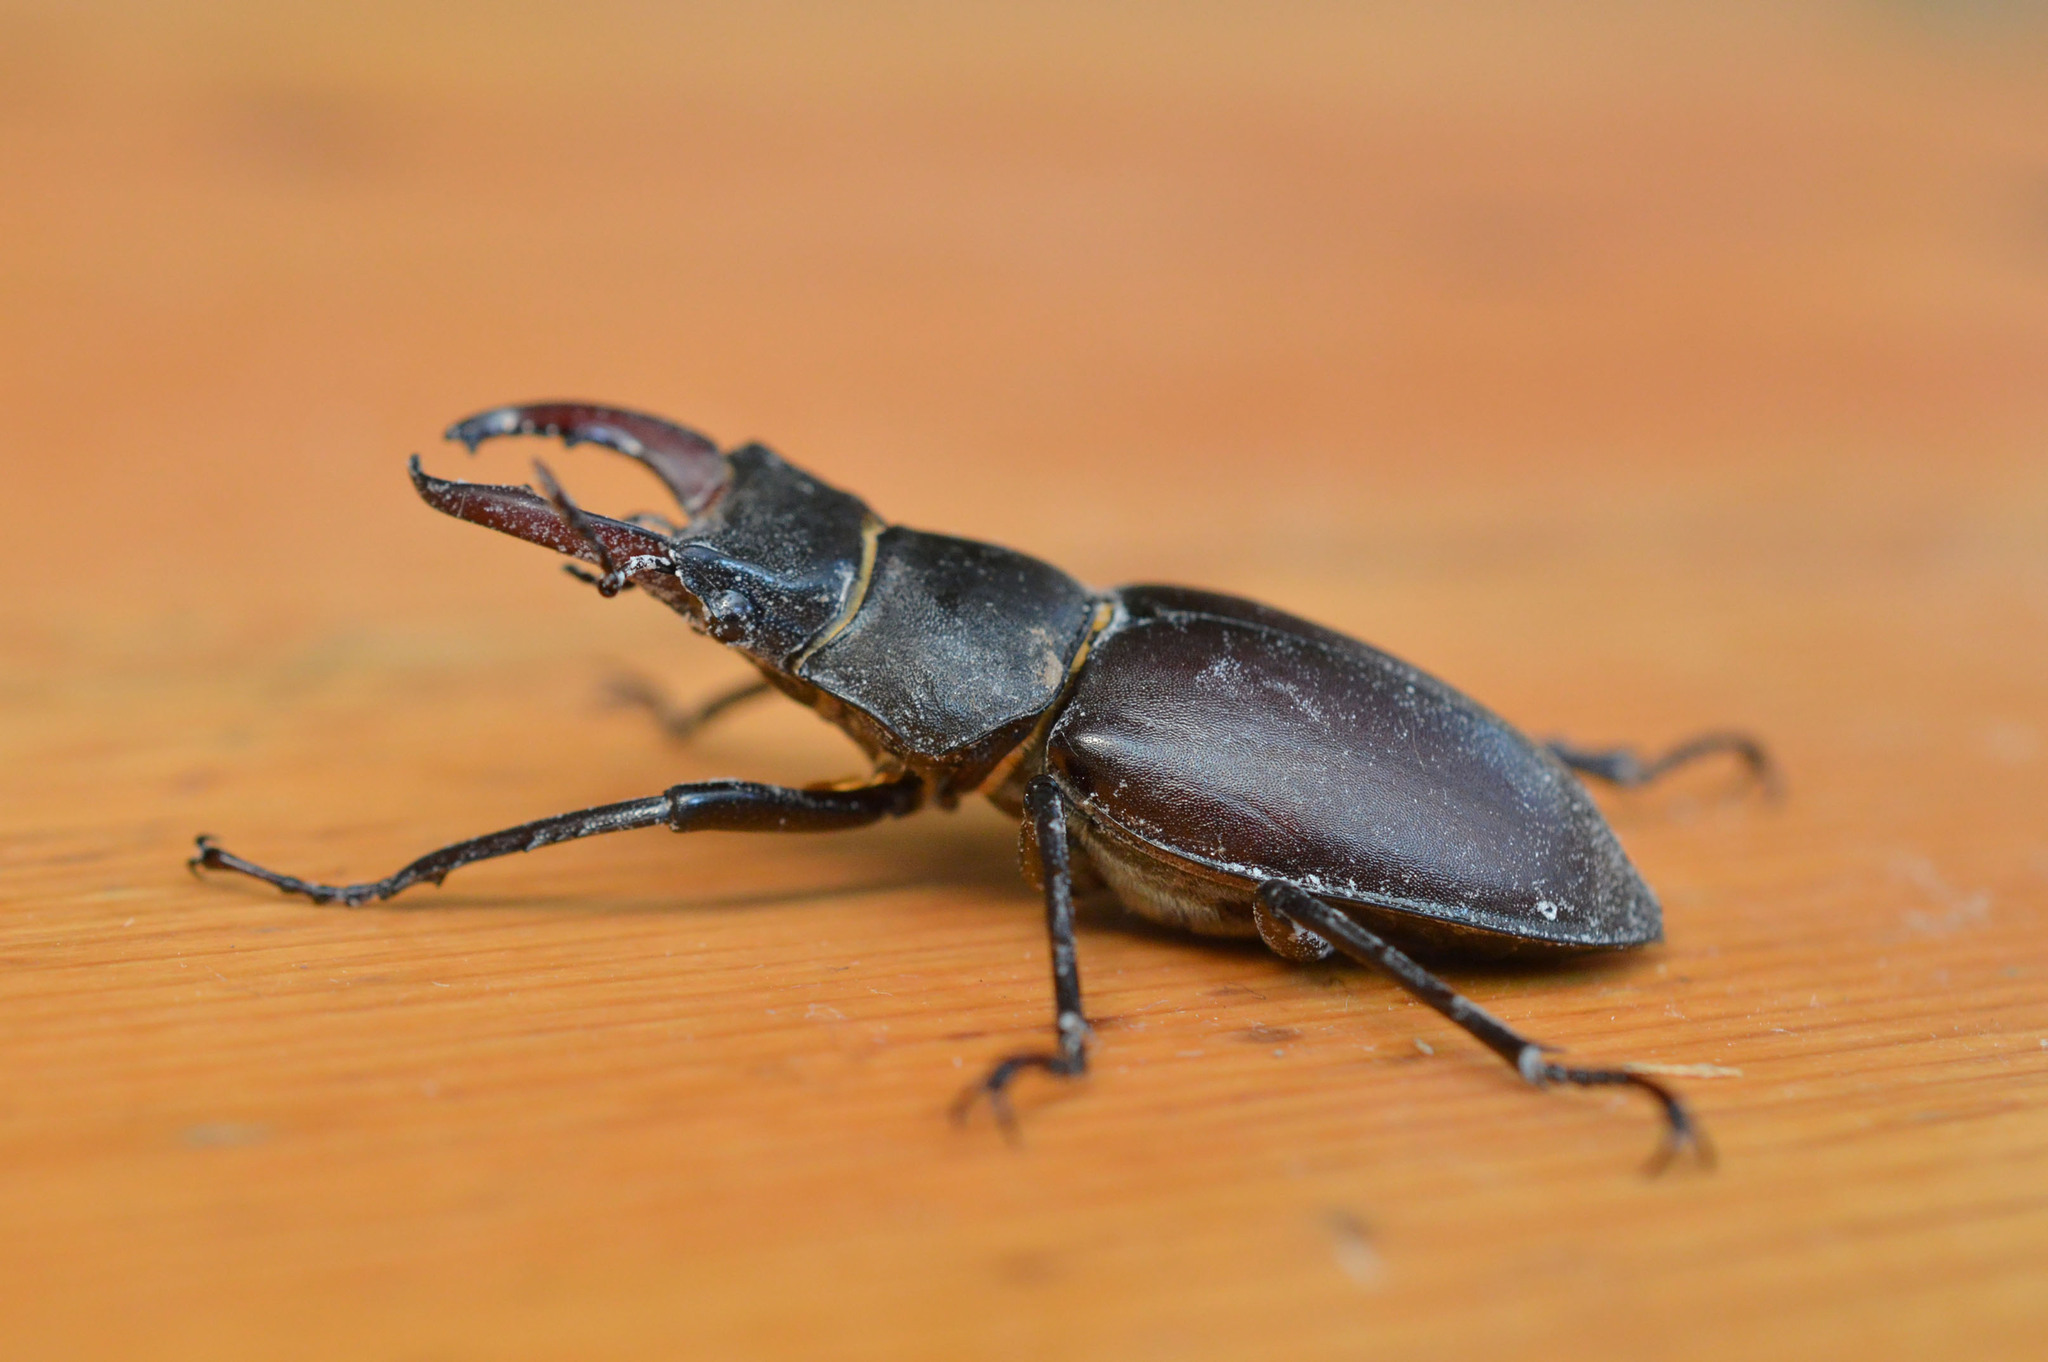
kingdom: Animalia
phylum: Arthropoda
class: Insecta
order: Coleoptera
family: Lucanidae
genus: Lucanus
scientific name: Lucanus cervus
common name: Stag beetle
